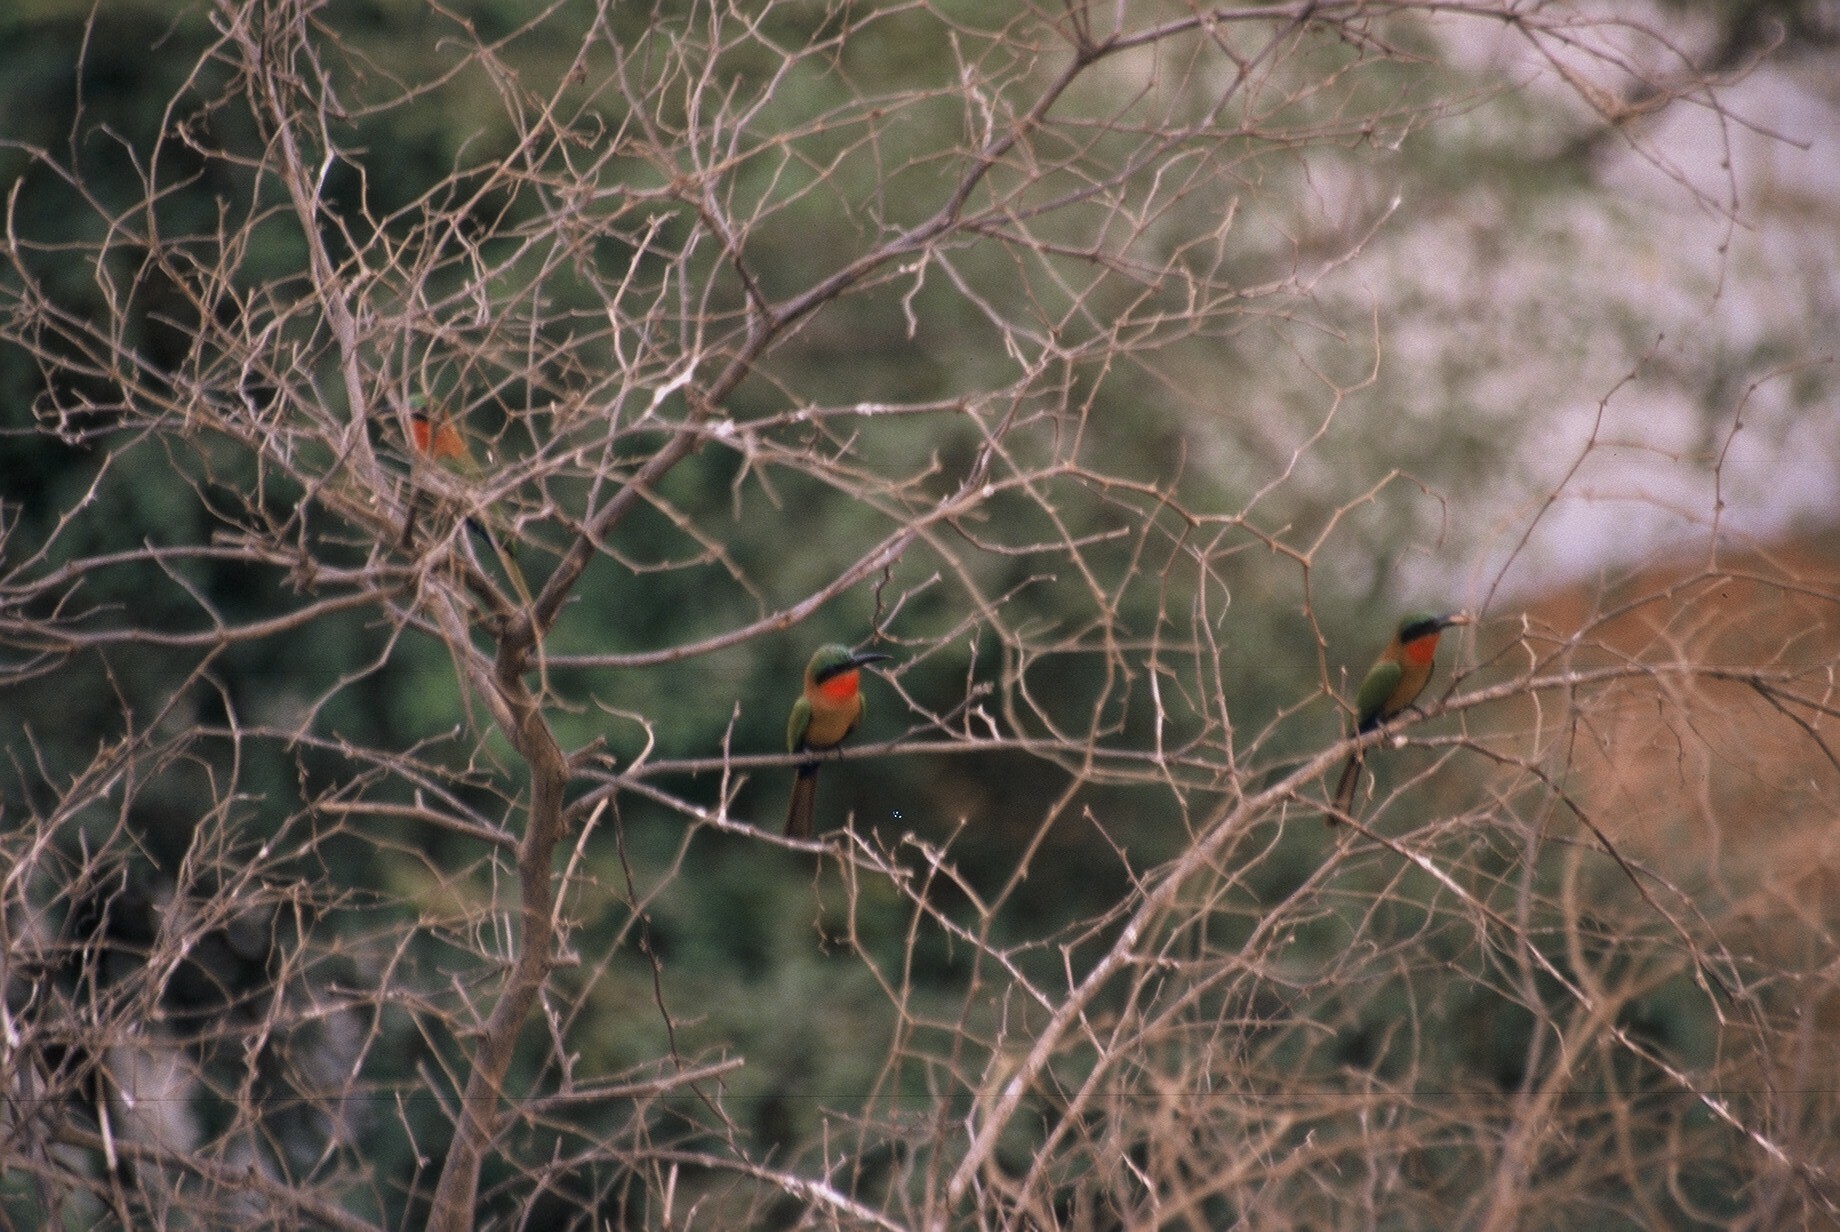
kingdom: Animalia
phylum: Chordata
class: Aves
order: Coraciiformes
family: Meropidae
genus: Merops
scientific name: Merops bulocki
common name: Red-throated bee-eater
